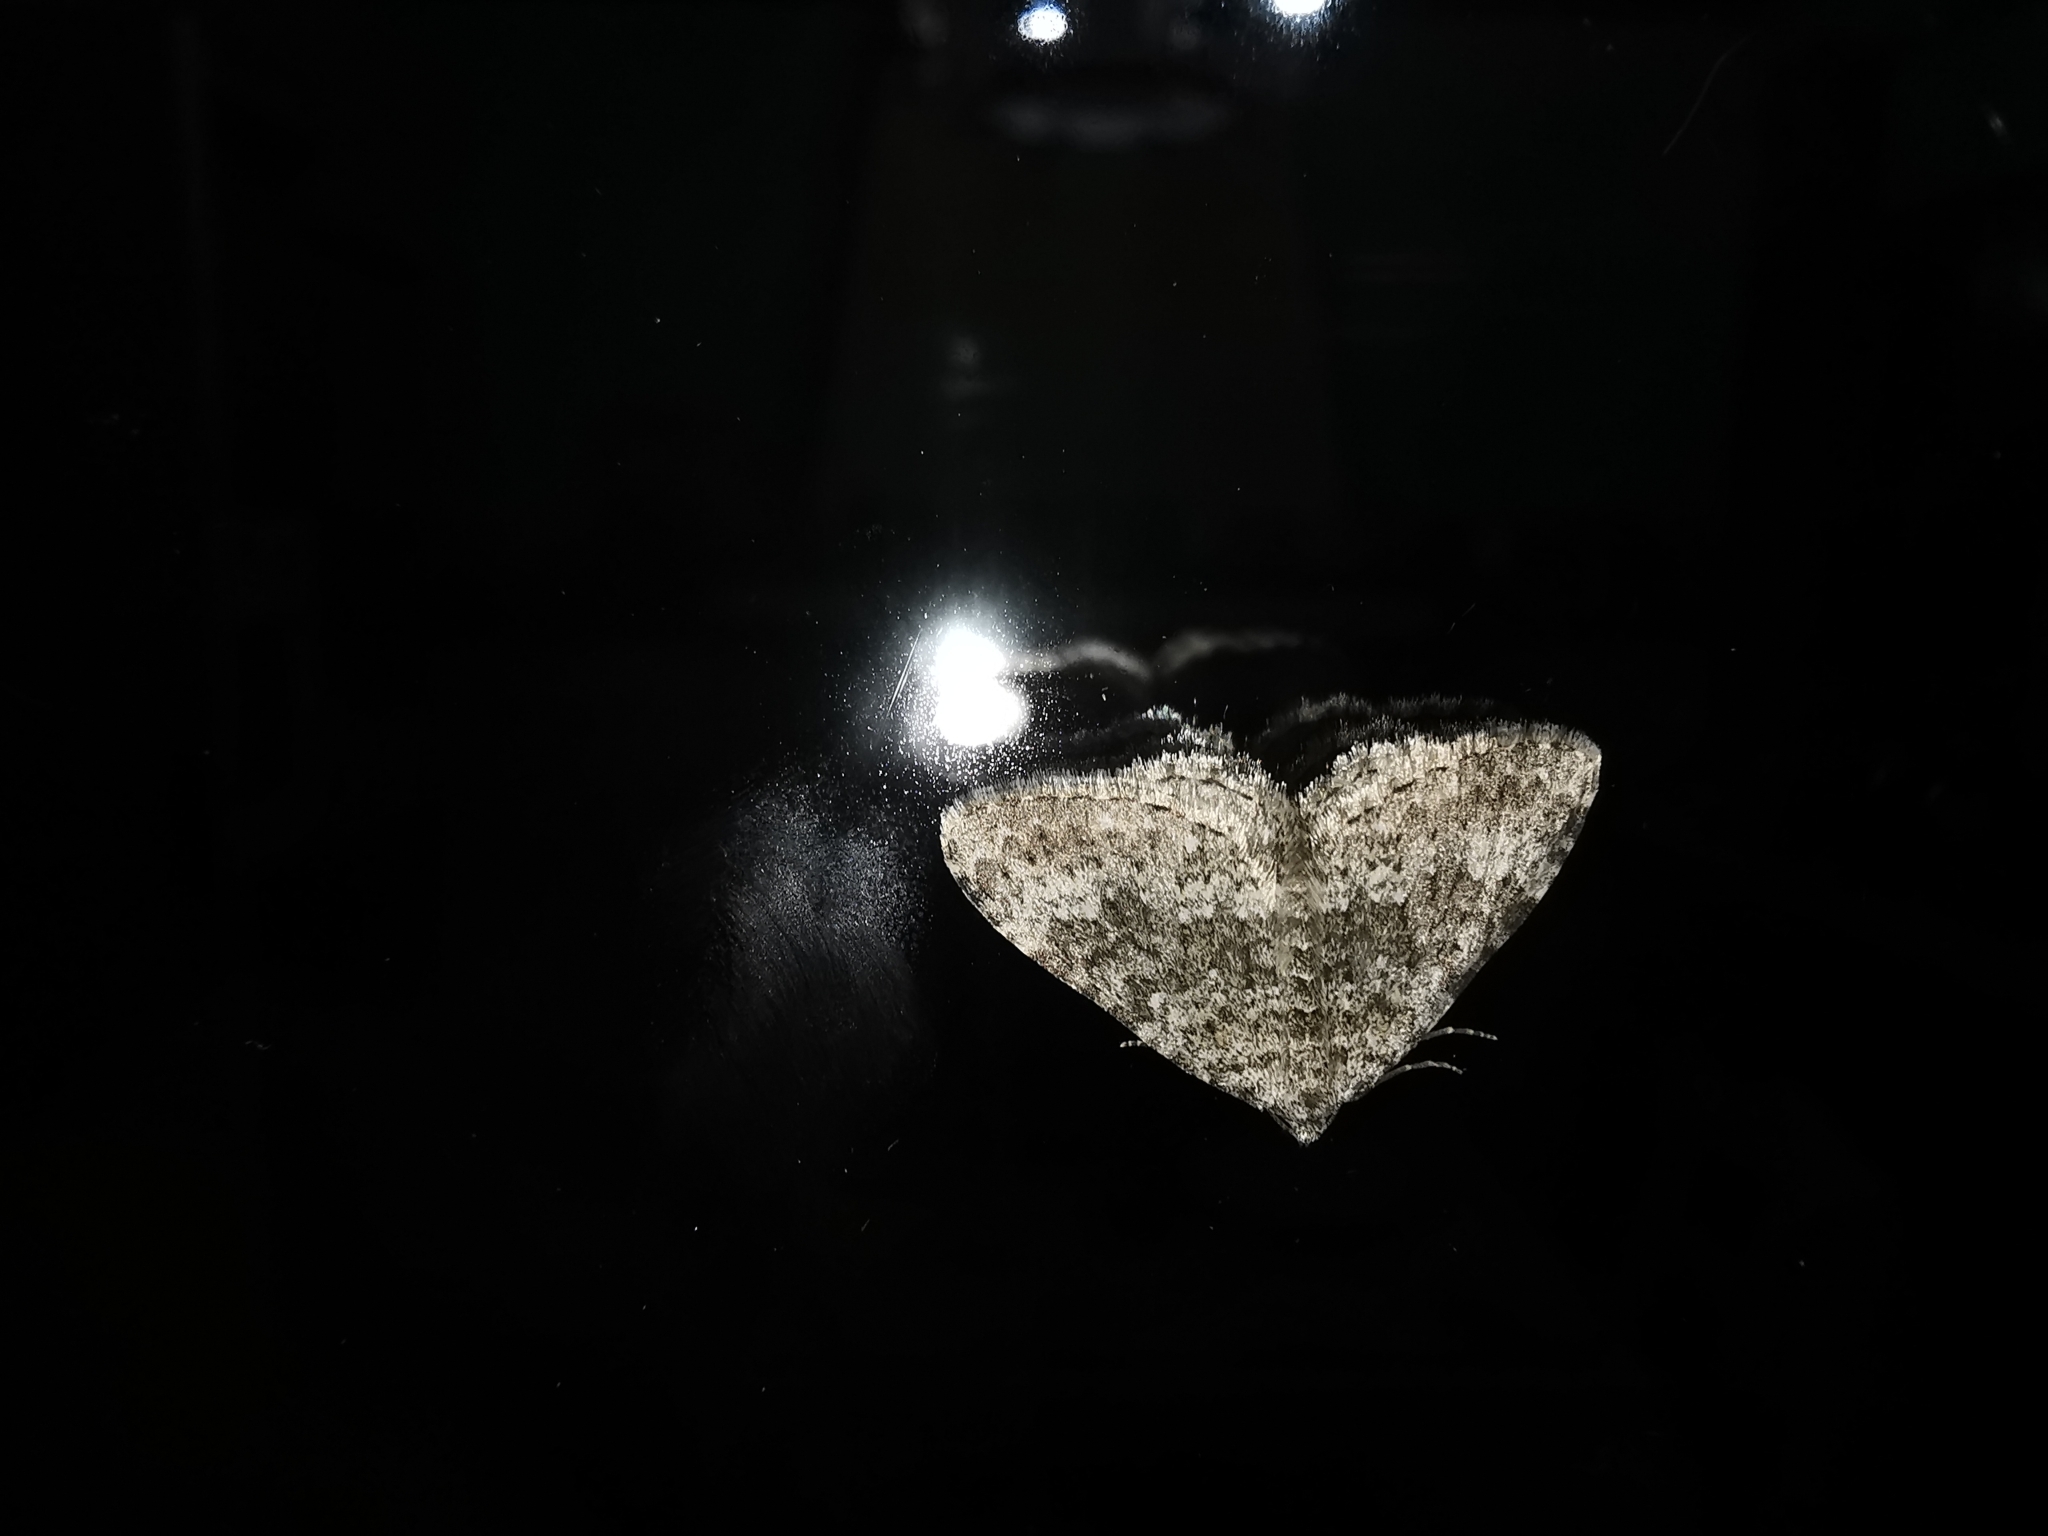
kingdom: Animalia
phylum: Arthropoda
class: Insecta
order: Lepidoptera
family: Geometridae
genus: Nebula
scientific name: Nebula salicata
